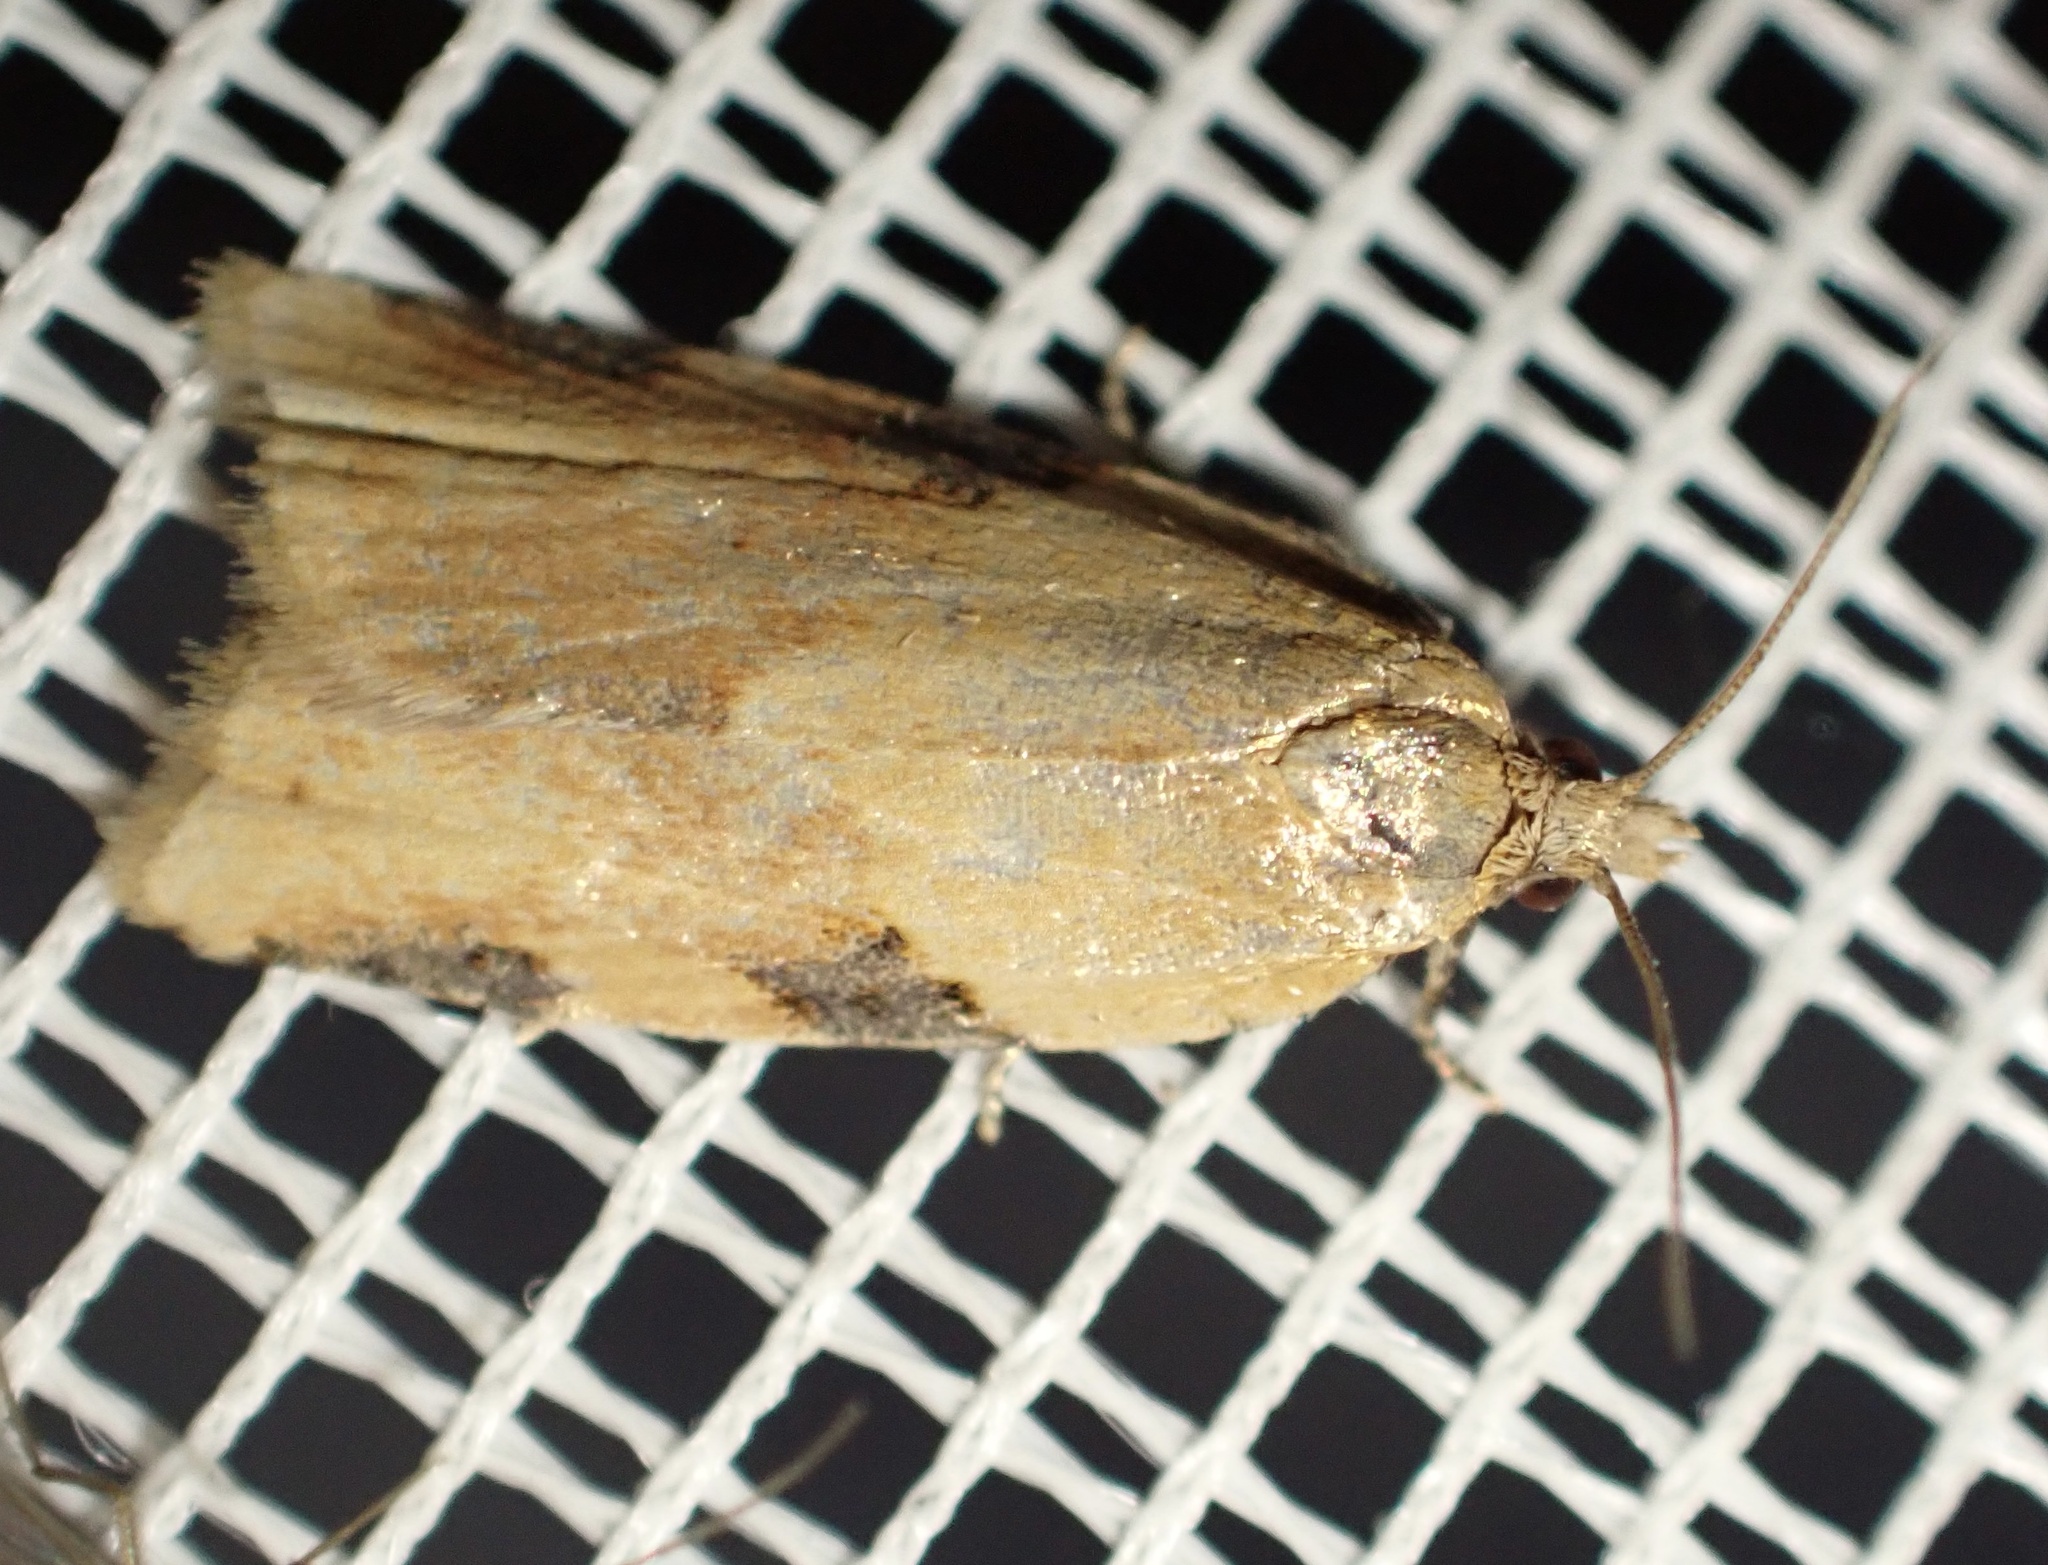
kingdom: Animalia
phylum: Arthropoda
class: Insecta
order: Lepidoptera
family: Tortricidae
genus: Clepsis
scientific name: Clepsis spectrana
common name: Cyclamen tortrix
